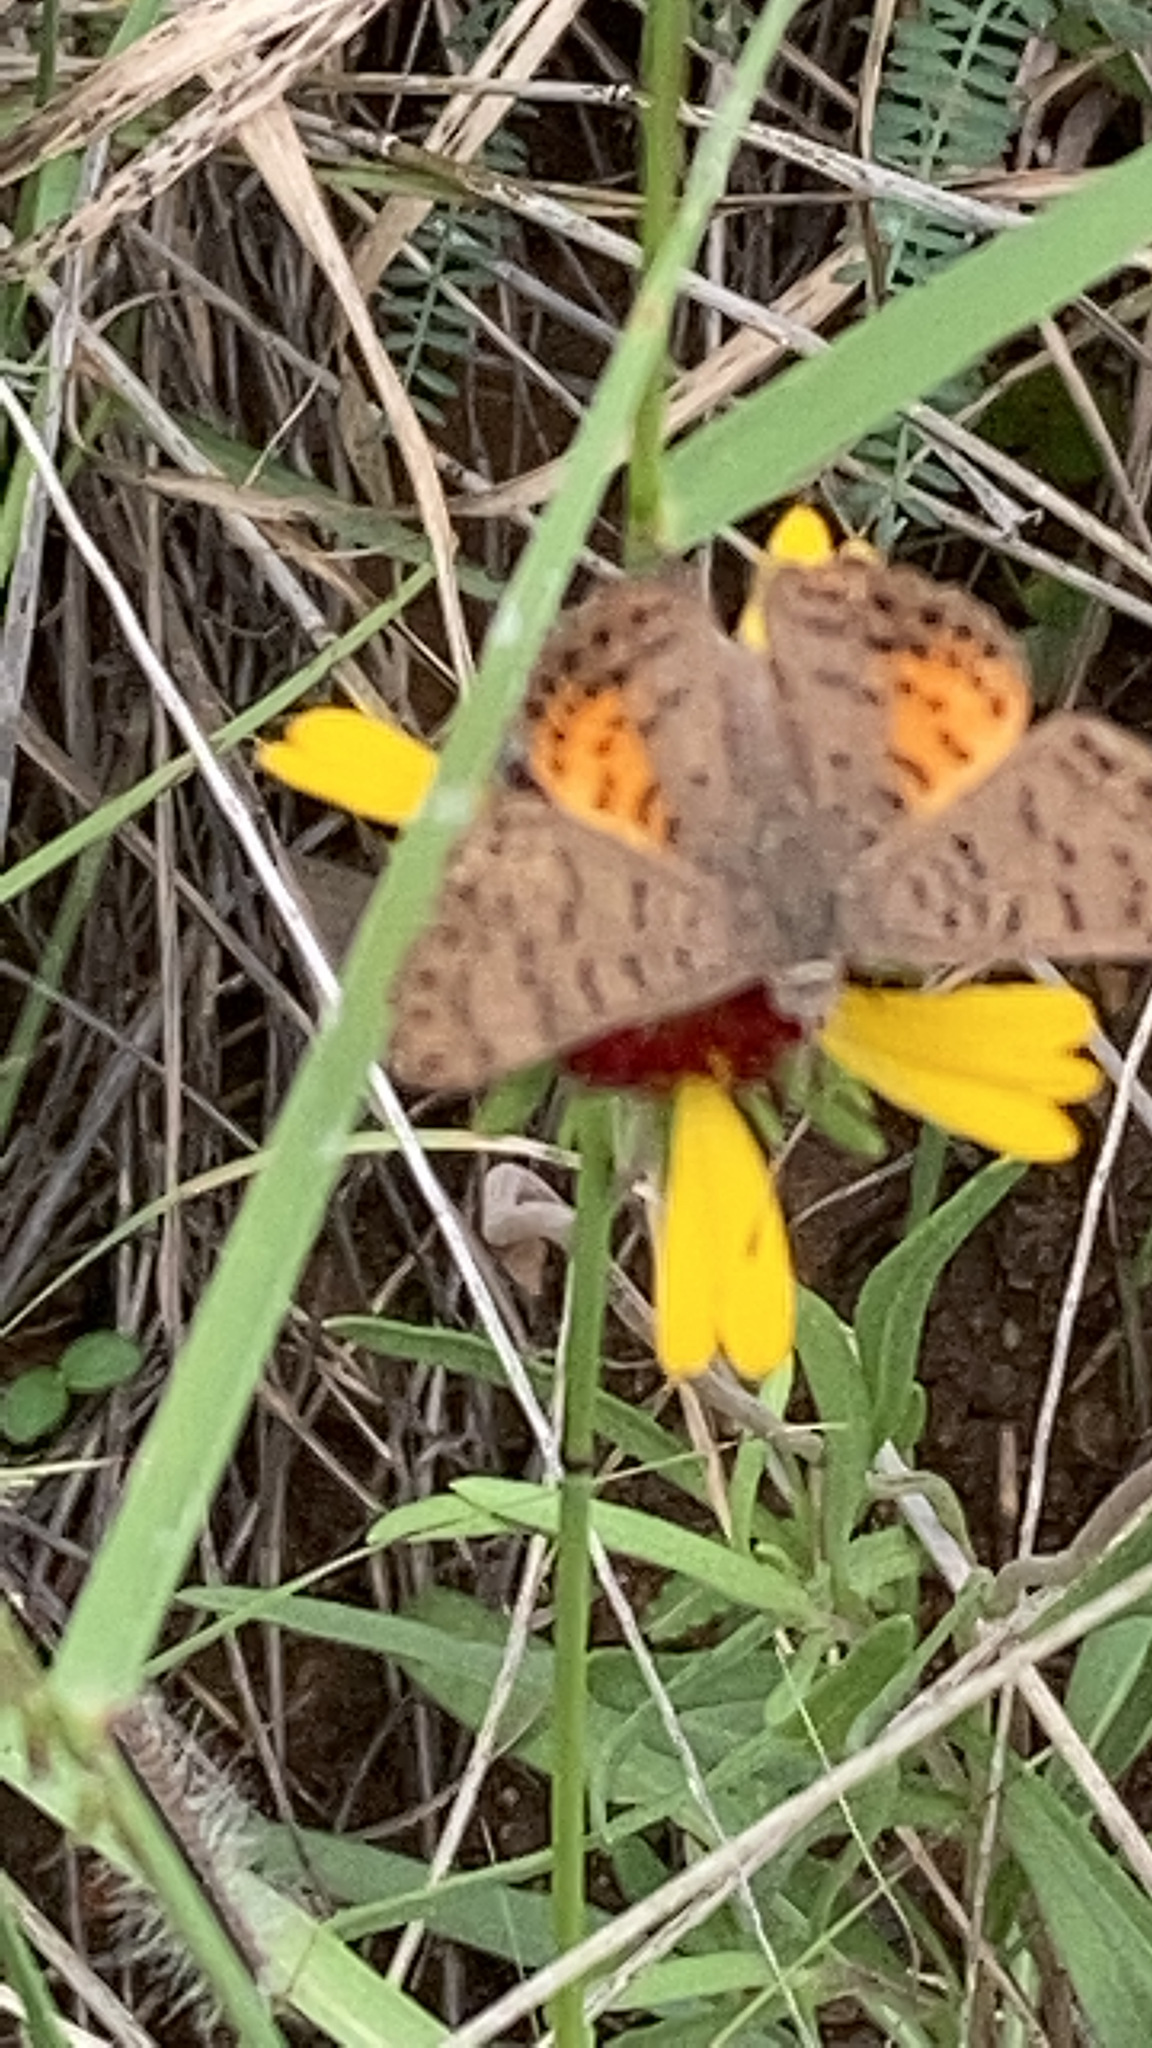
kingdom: Animalia
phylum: Arthropoda
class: Insecta
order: Lepidoptera
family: Riodinidae
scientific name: Riodinidae
